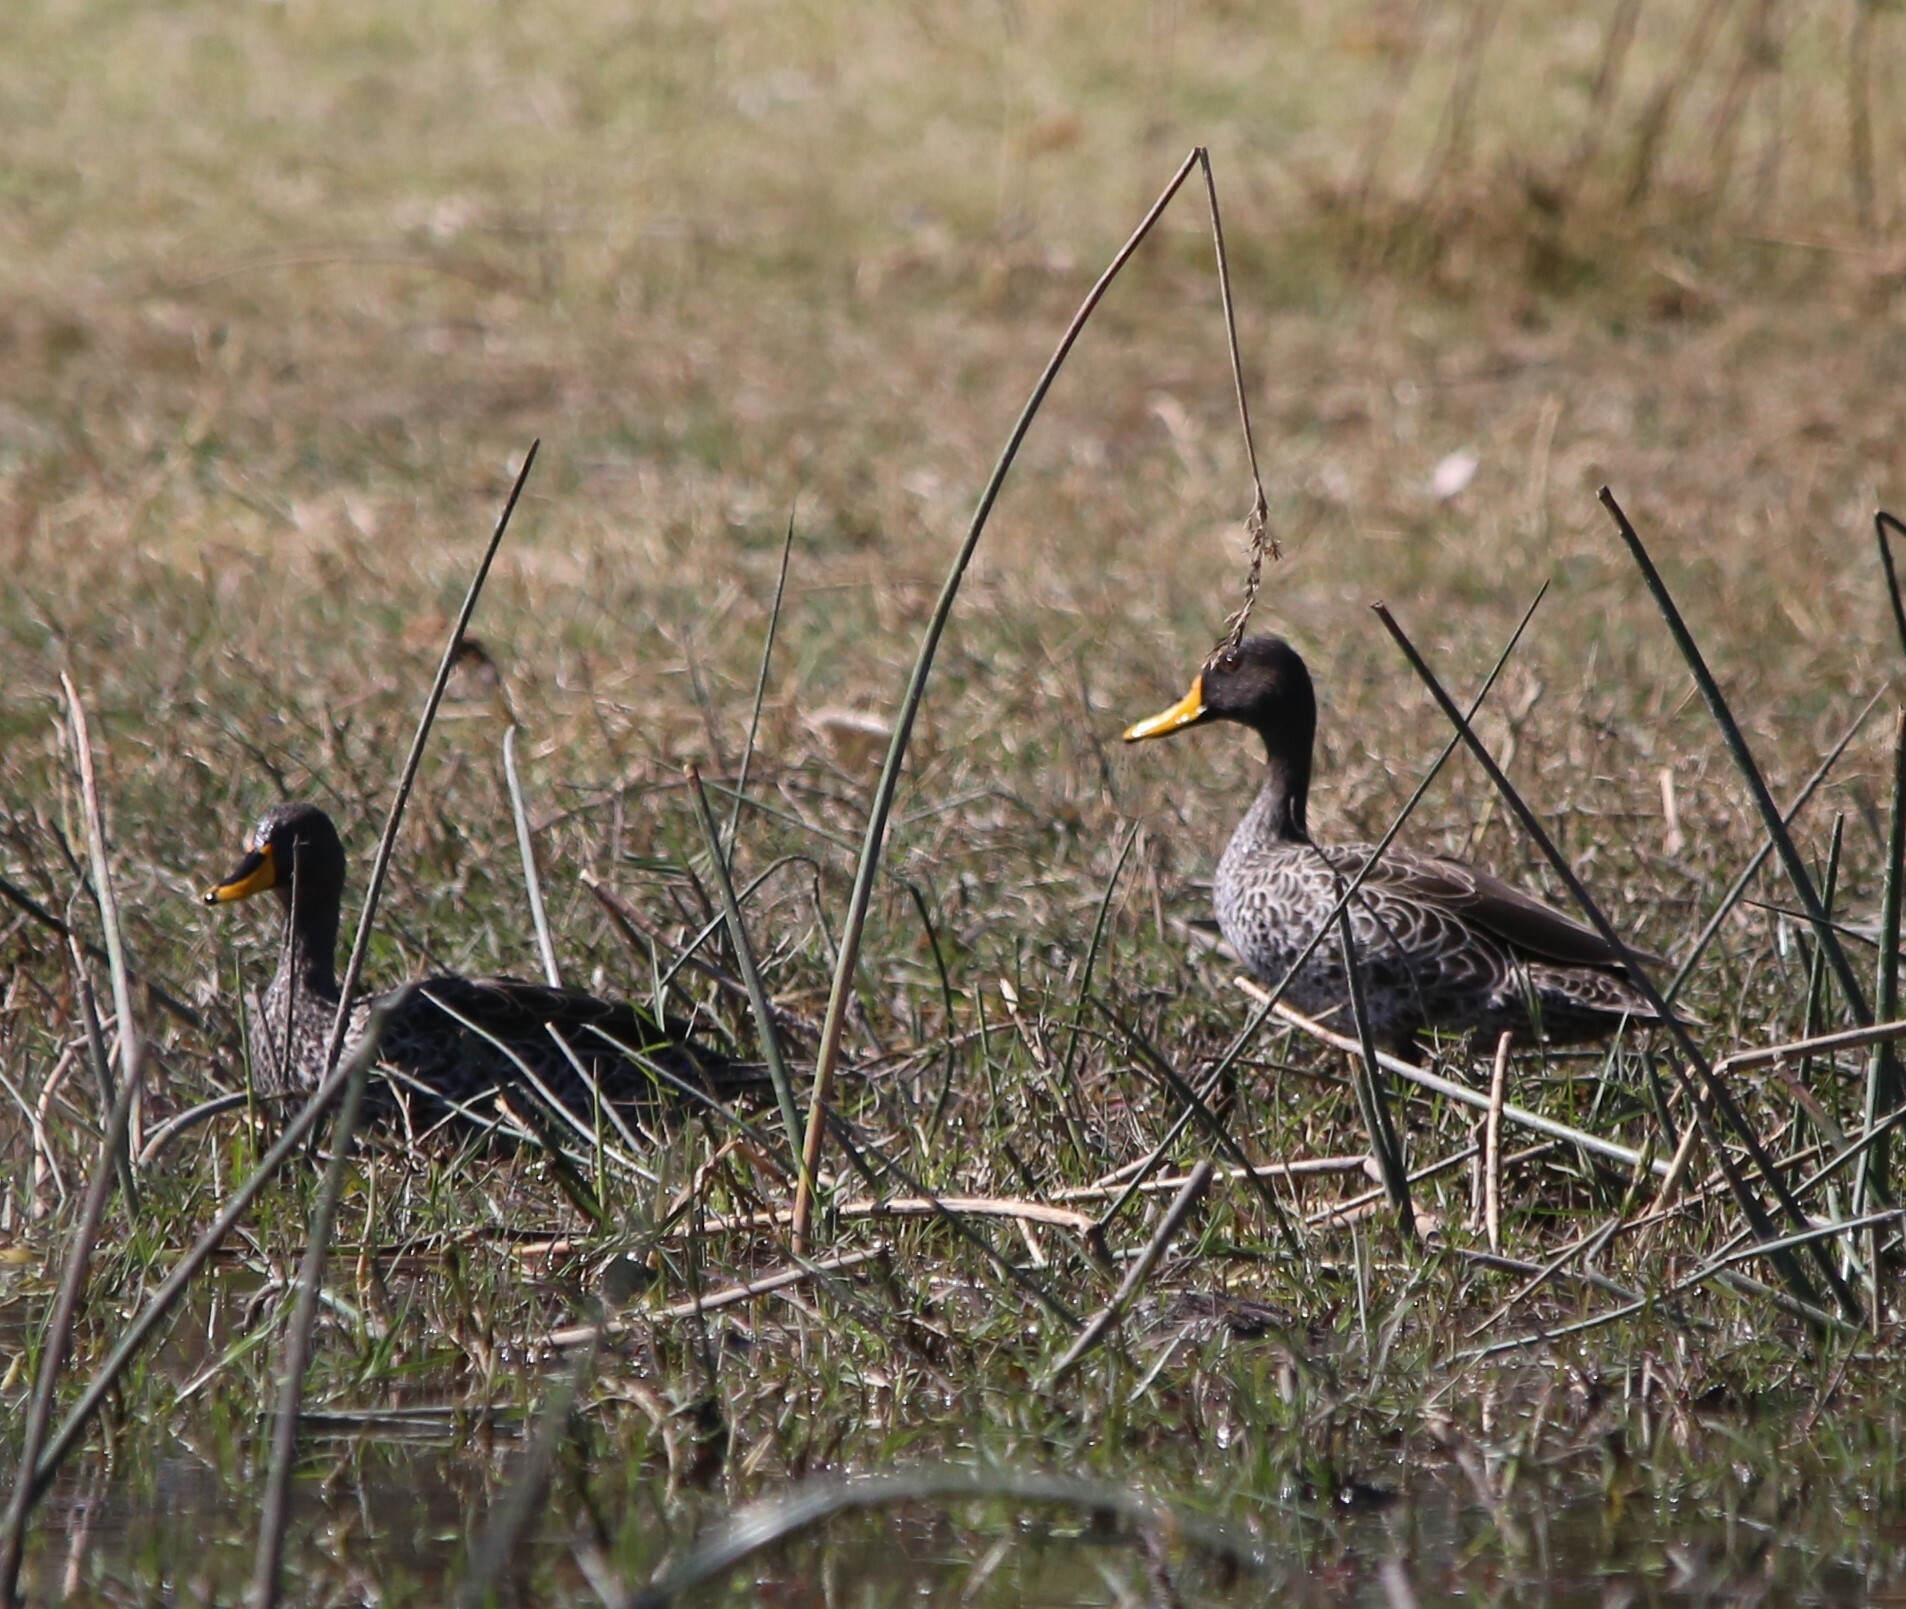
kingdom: Animalia
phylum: Chordata
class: Aves
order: Anseriformes
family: Anatidae
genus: Anas
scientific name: Anas undulata
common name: Yellow-billed duck
